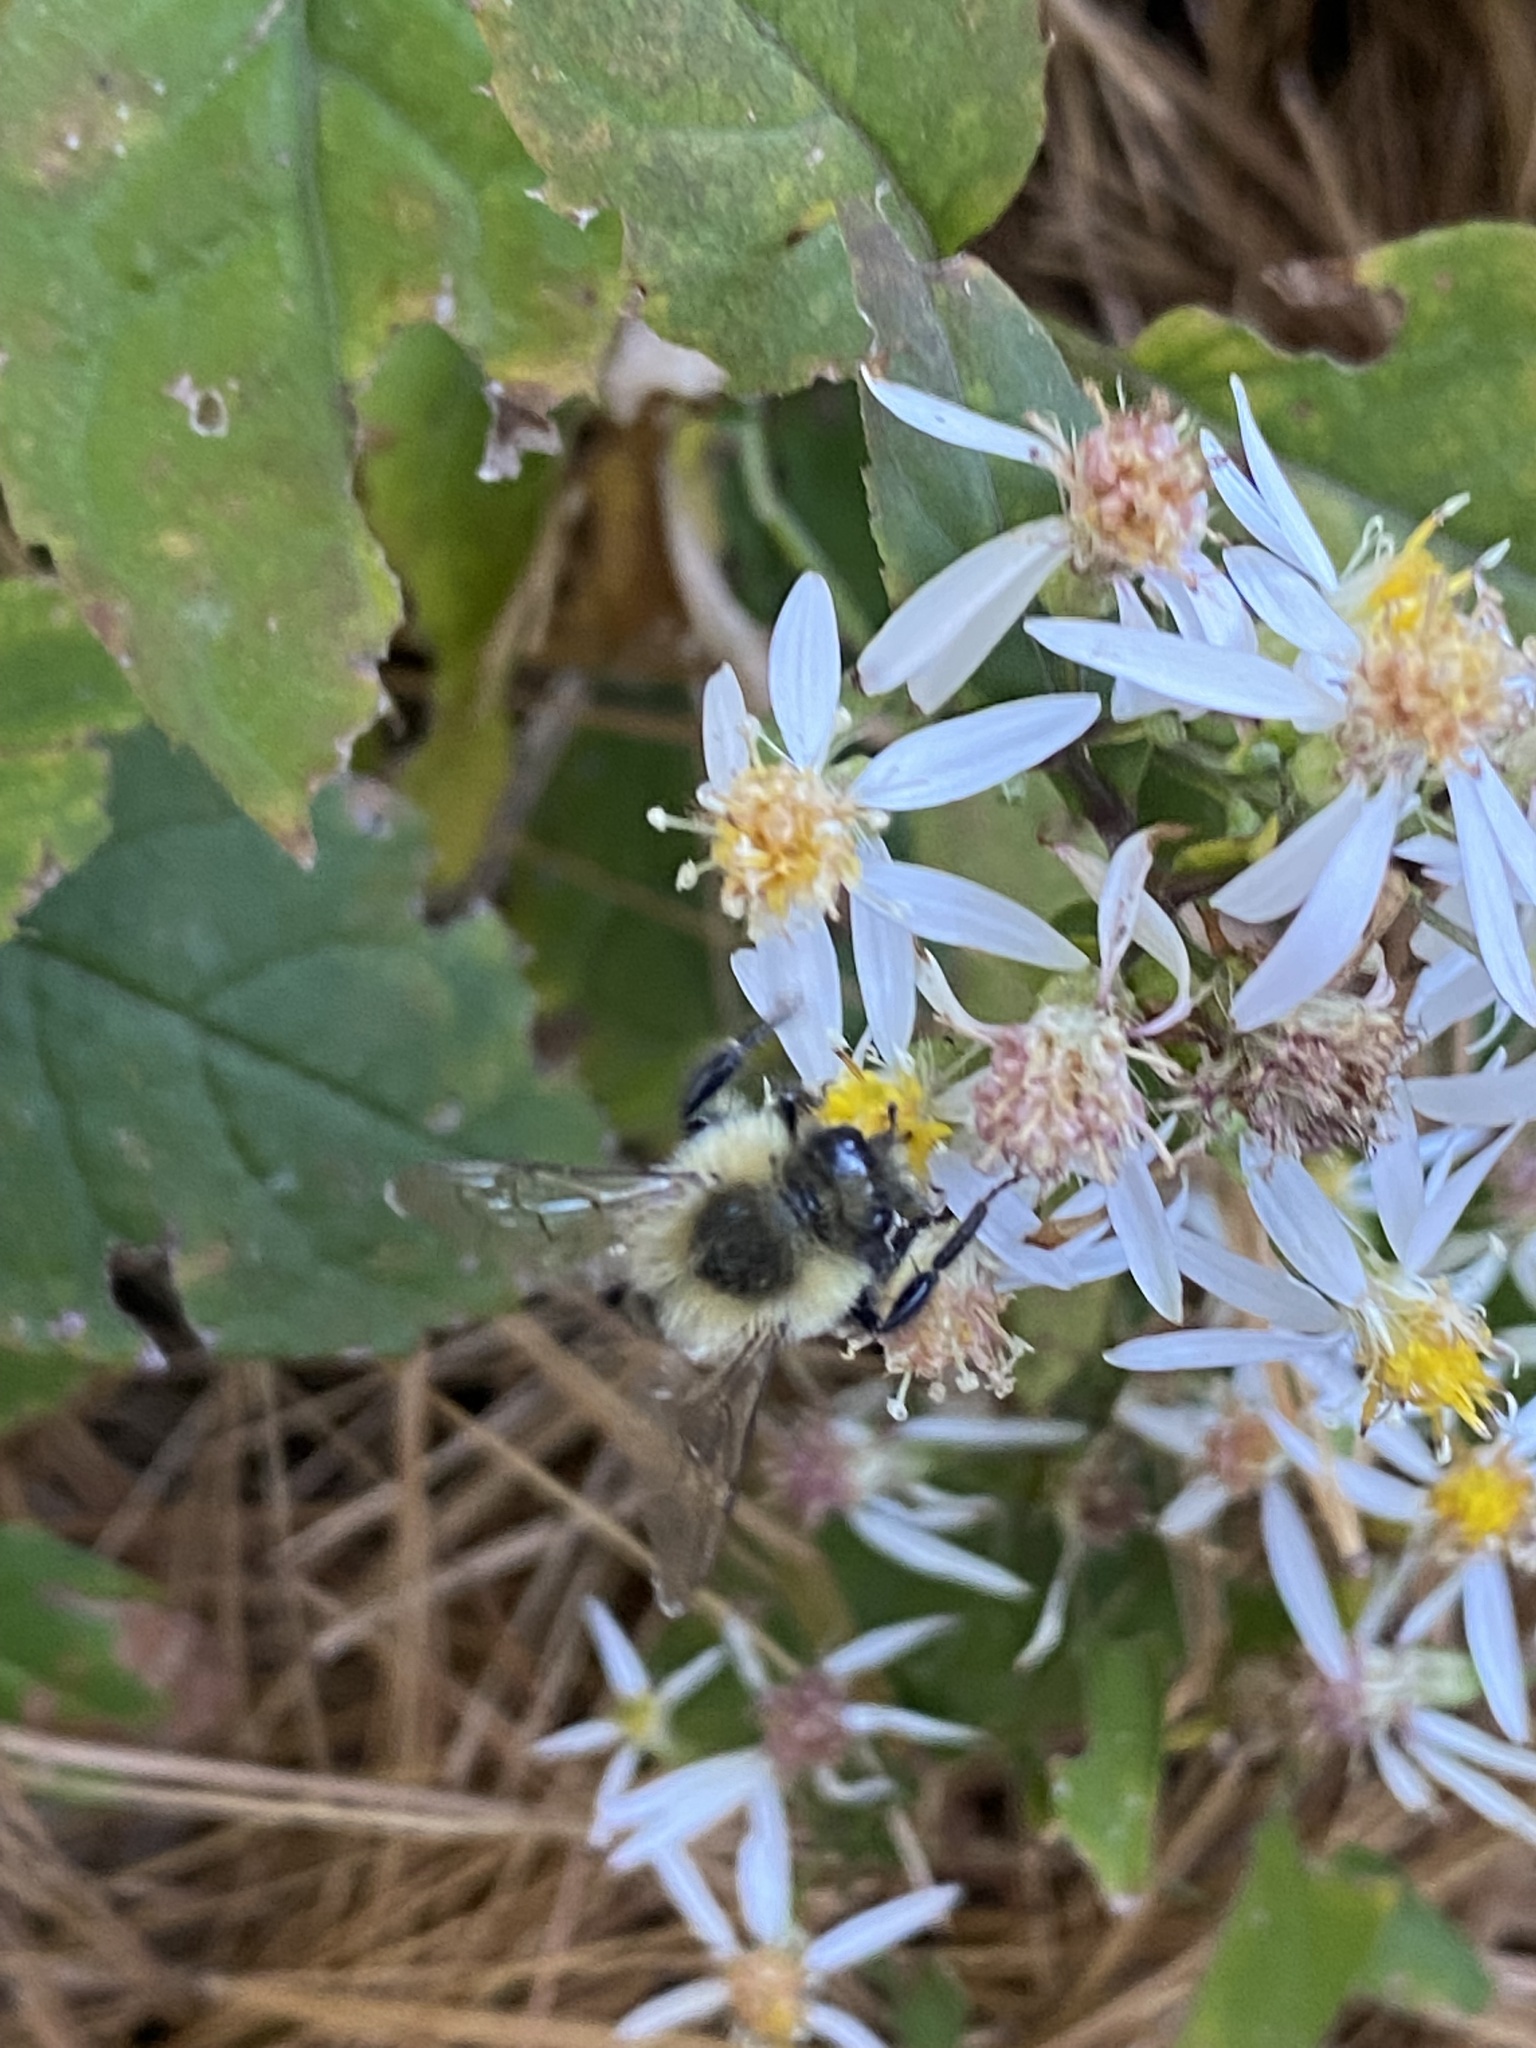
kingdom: Animalia
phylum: Arthropoda
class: Insecta
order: Hymenoptera
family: Apidae
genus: Bombus
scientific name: Bombus impatiens
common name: Common eastern bumble bee
